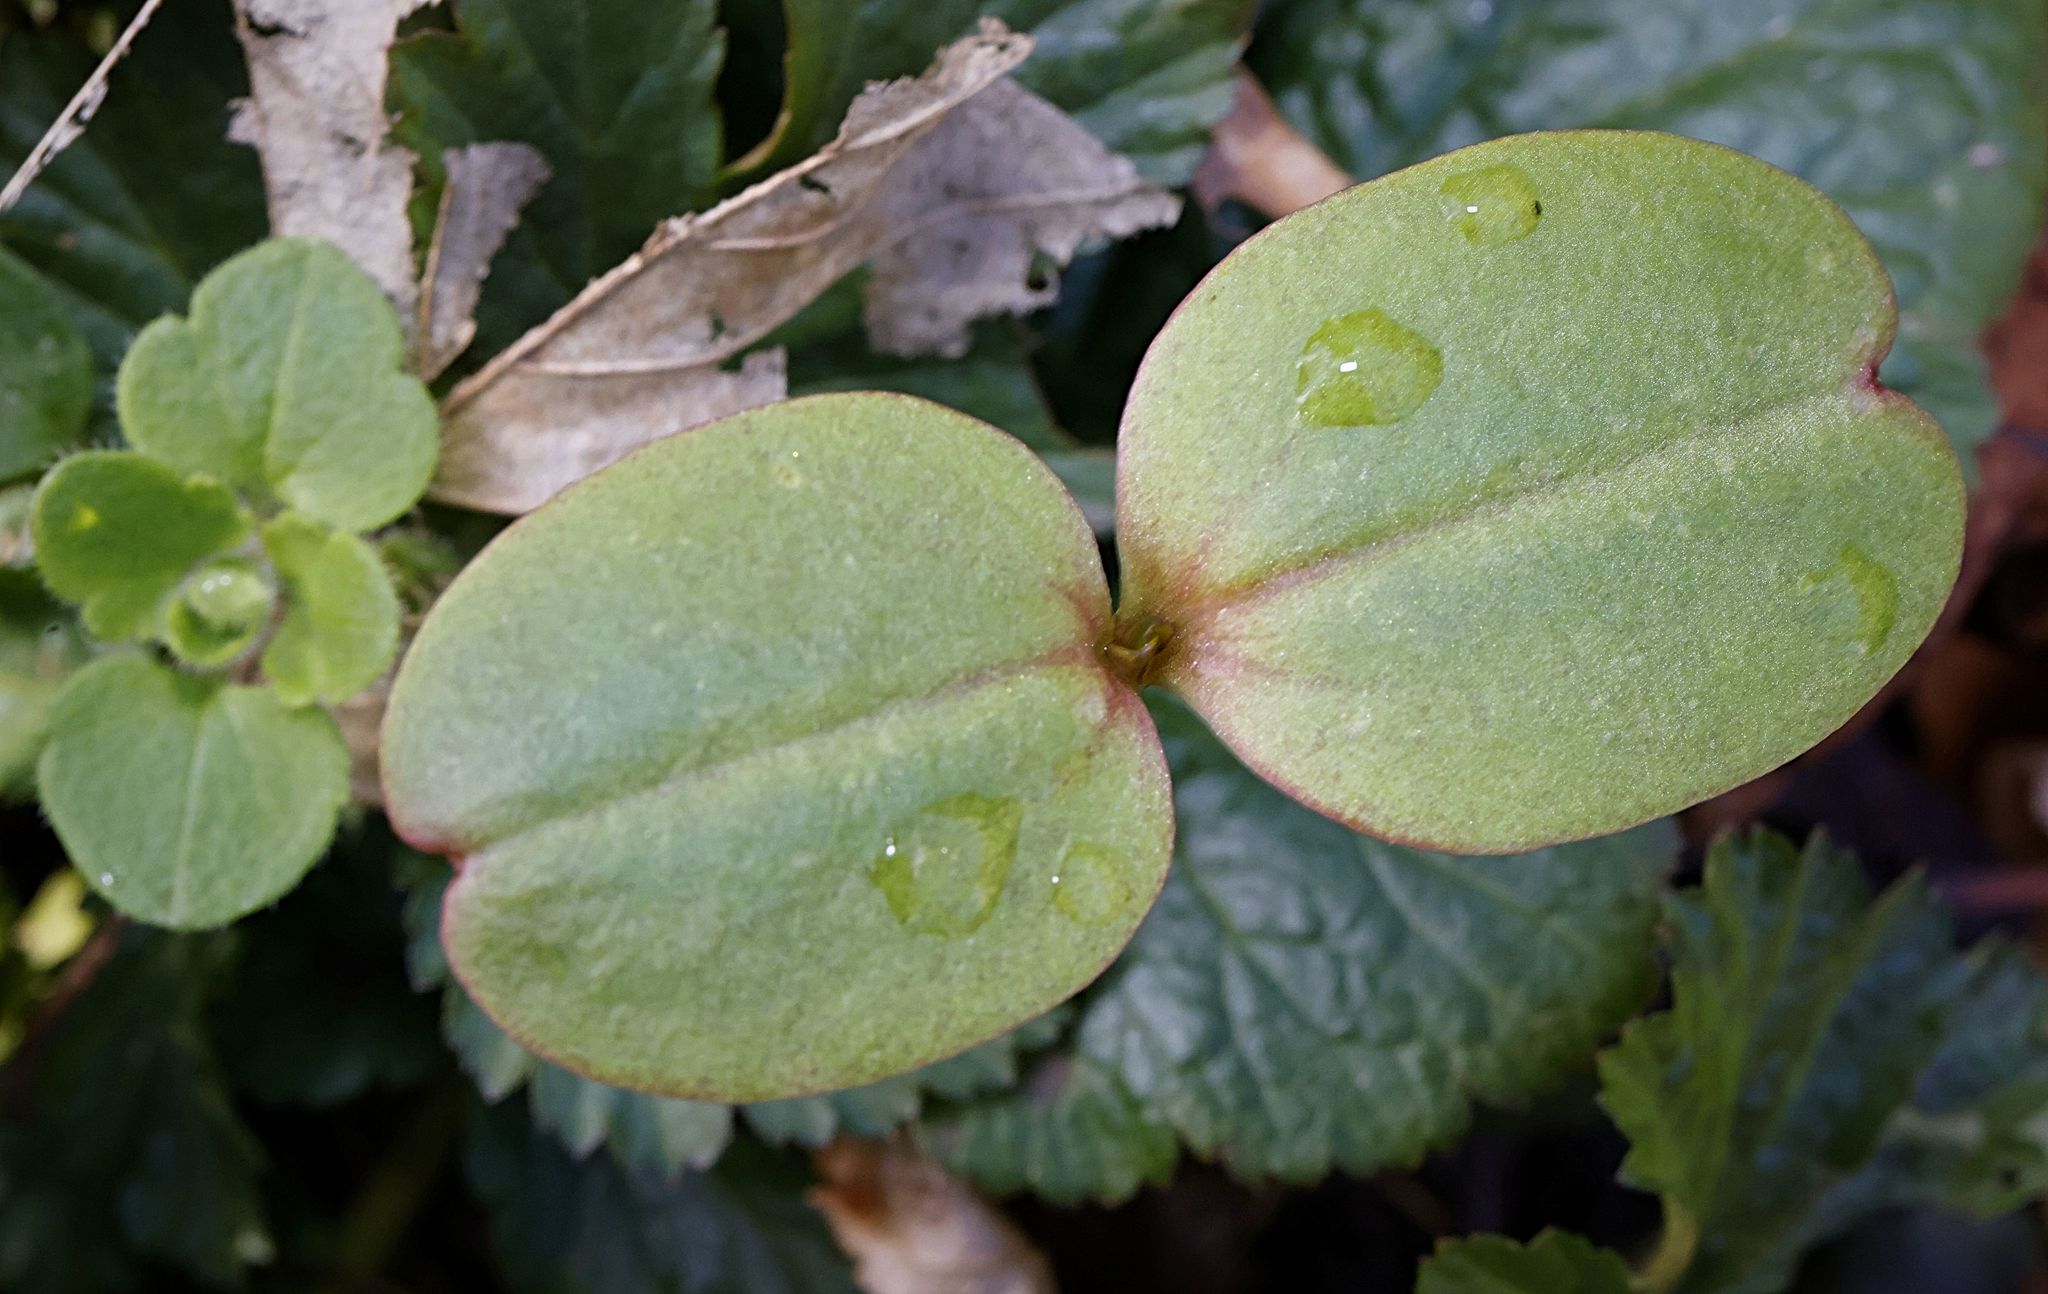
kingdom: Plantae
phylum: Tracheophyta
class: Magnoliopsida
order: Ericales
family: Balsaminaceae
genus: Impatiens
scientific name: Impatiens glandulifera
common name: Himalayan balsam
